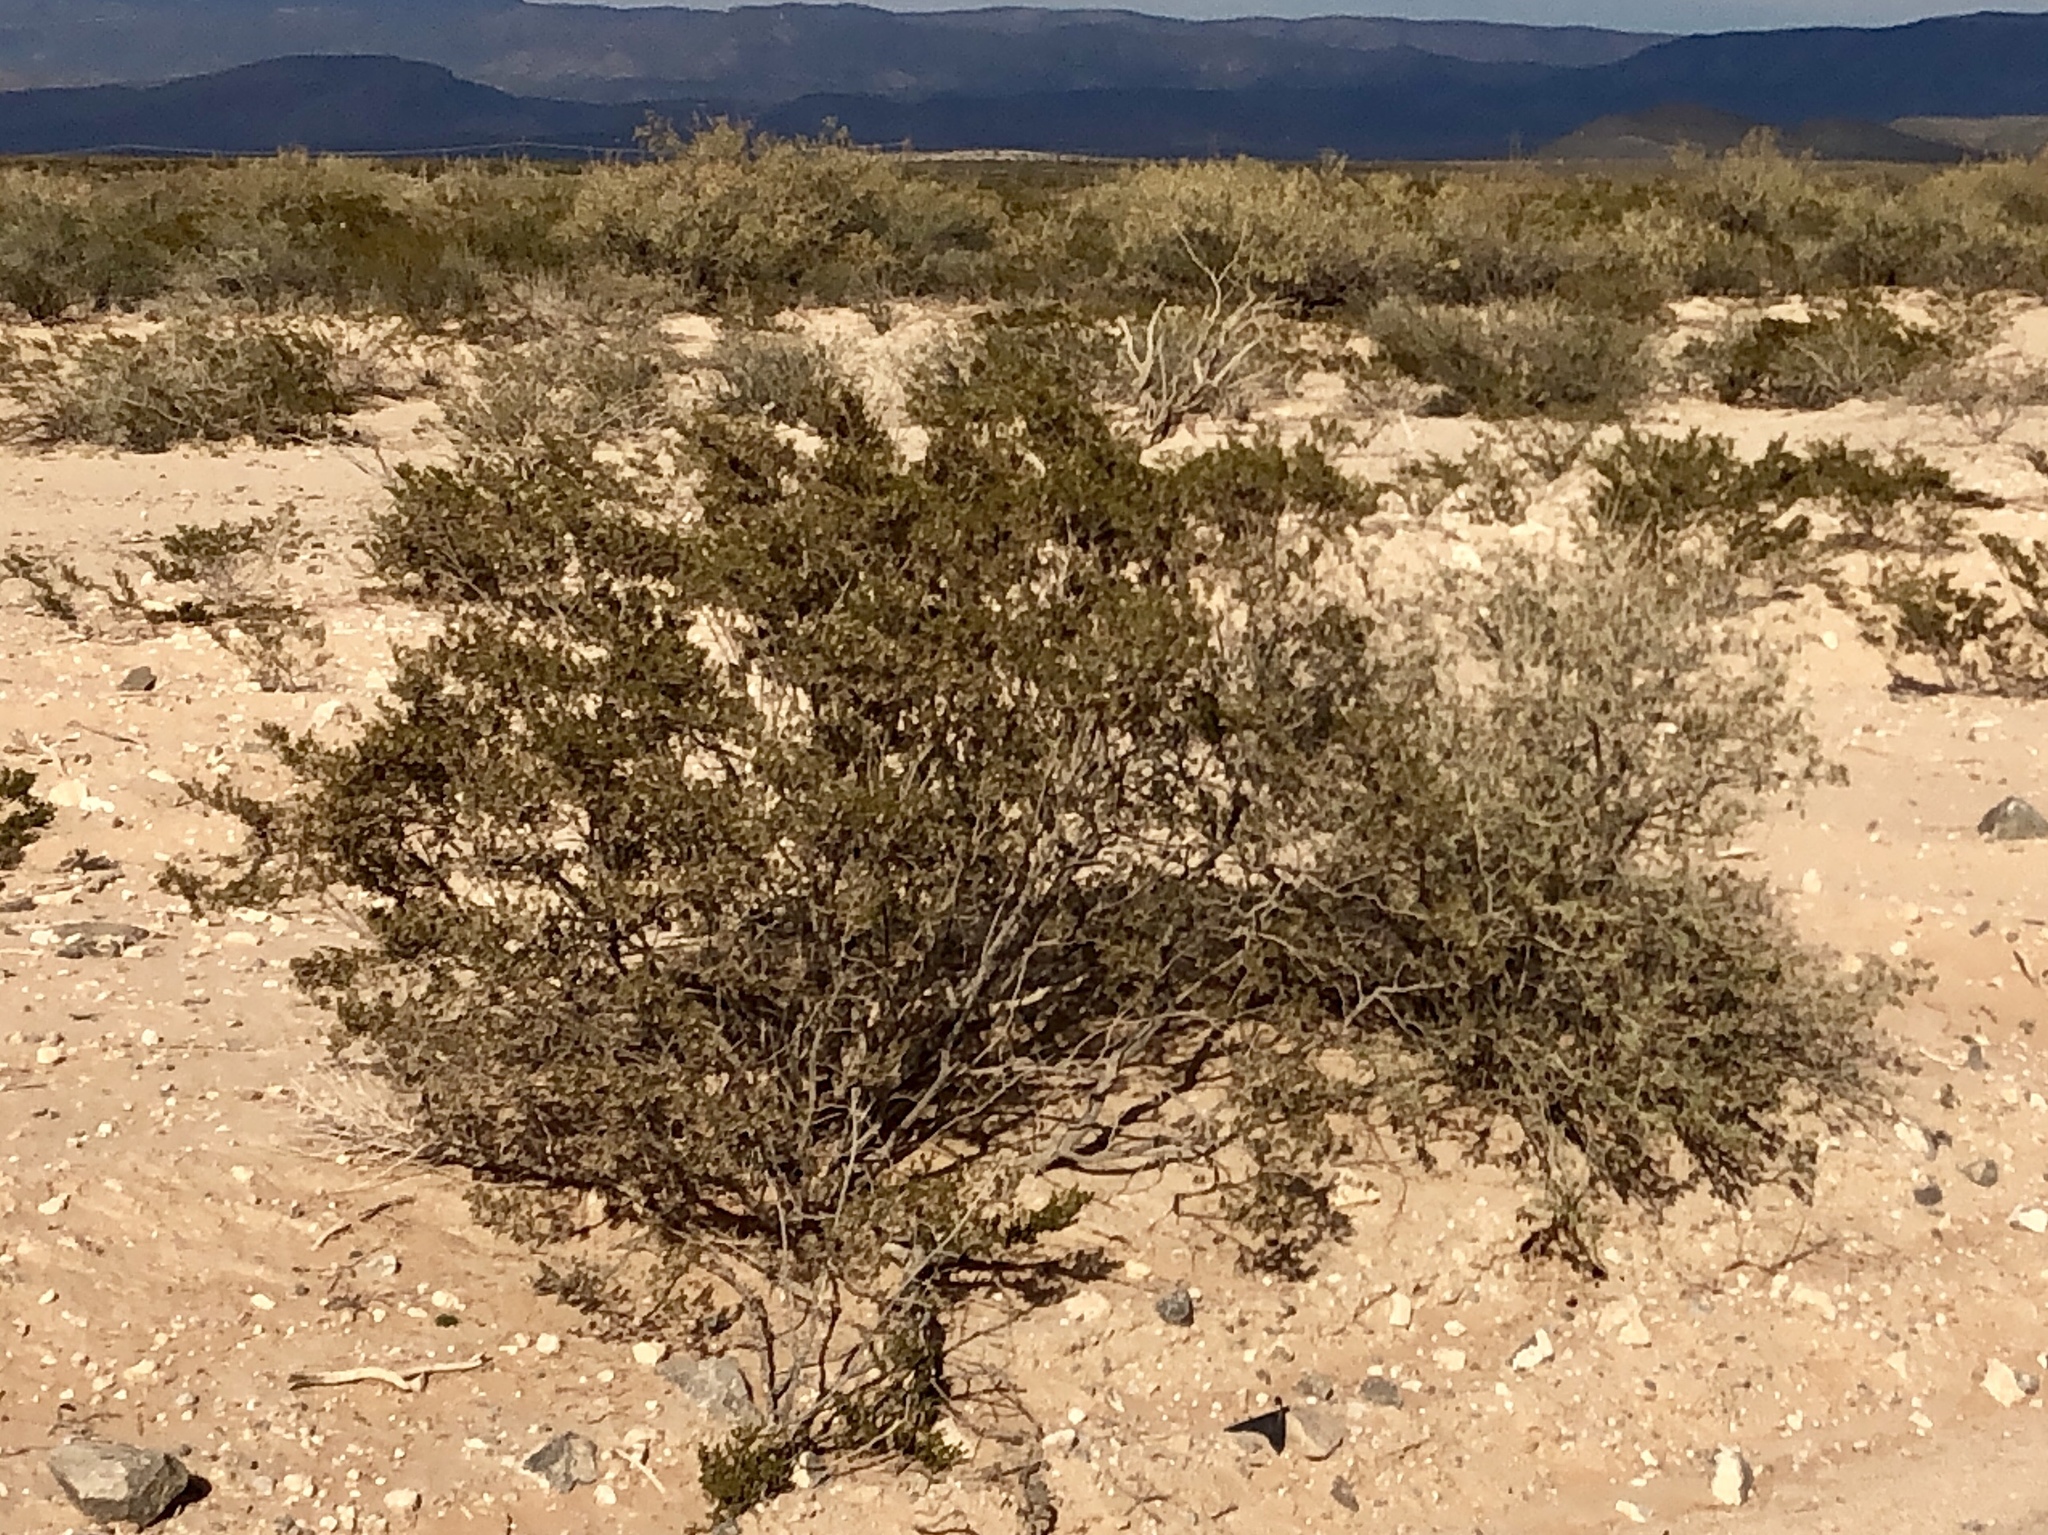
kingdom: Plantae
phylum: Tracheophyta
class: Magnoliopsida
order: Zygophyllales
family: Zygophyllaceae
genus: Larrea
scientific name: Larrea tridentata
